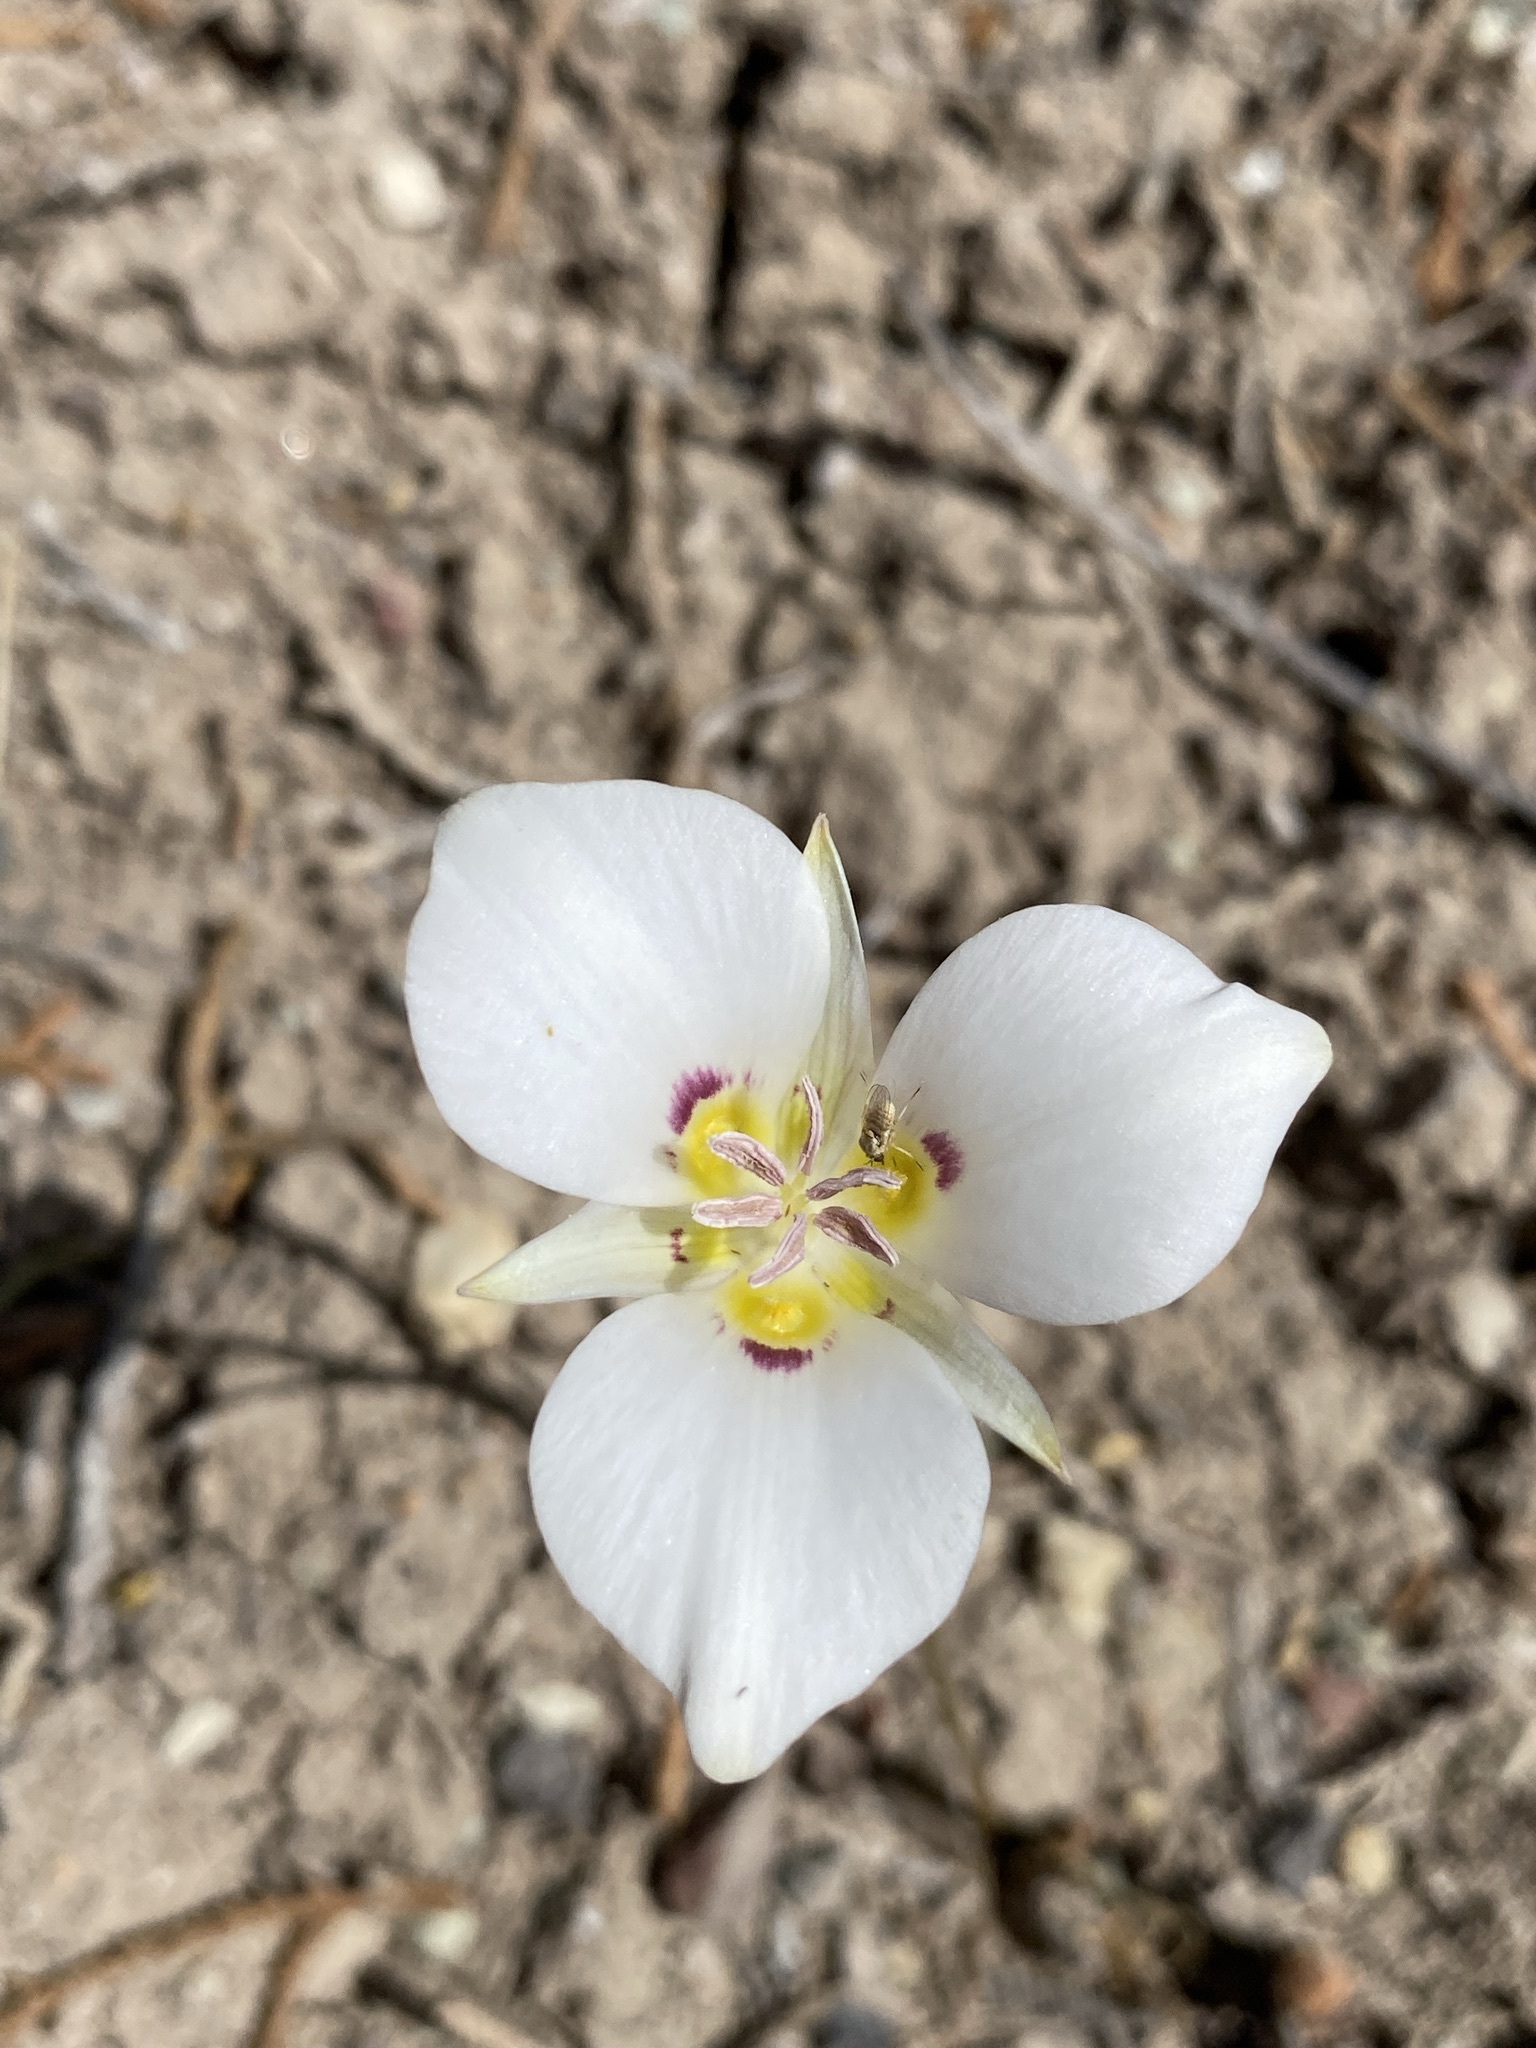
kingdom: Plantae
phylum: Tracheophyta
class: Liliopsida
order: Liliales
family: Liliaceae
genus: Calochortus
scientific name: Calochortus bruneaunis
